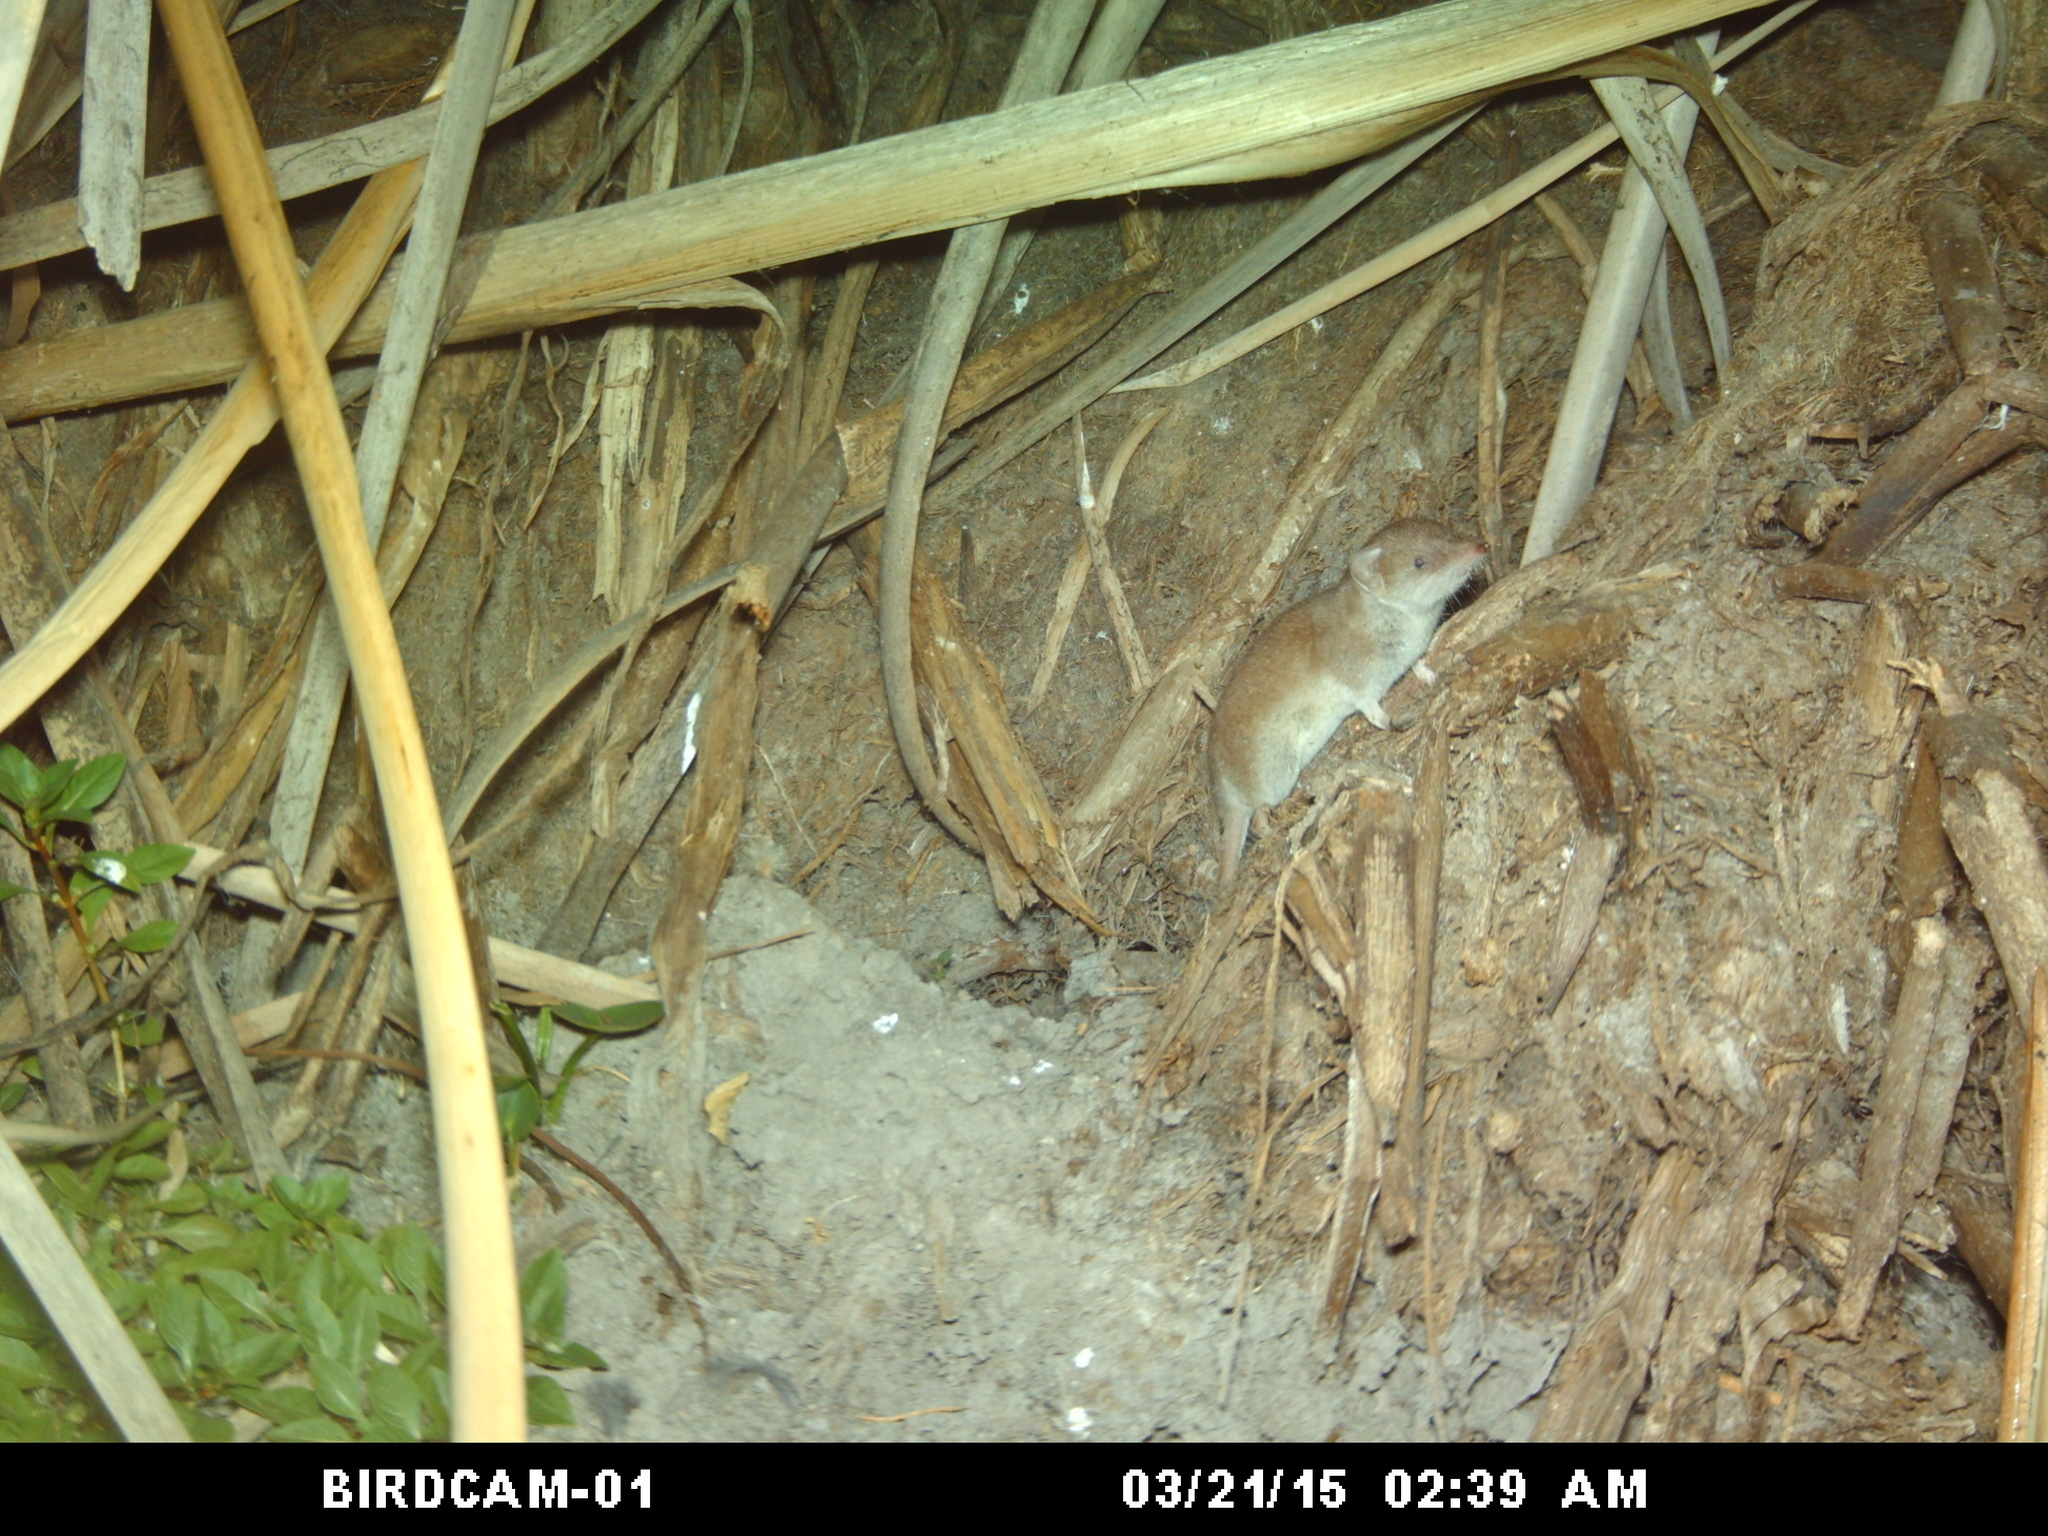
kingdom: Animalia
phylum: Chordata
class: Mammalia
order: Soricomorpha
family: Soricidae
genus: Crocidura
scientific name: Crocidura flavescens
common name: Greater red musk shrew
